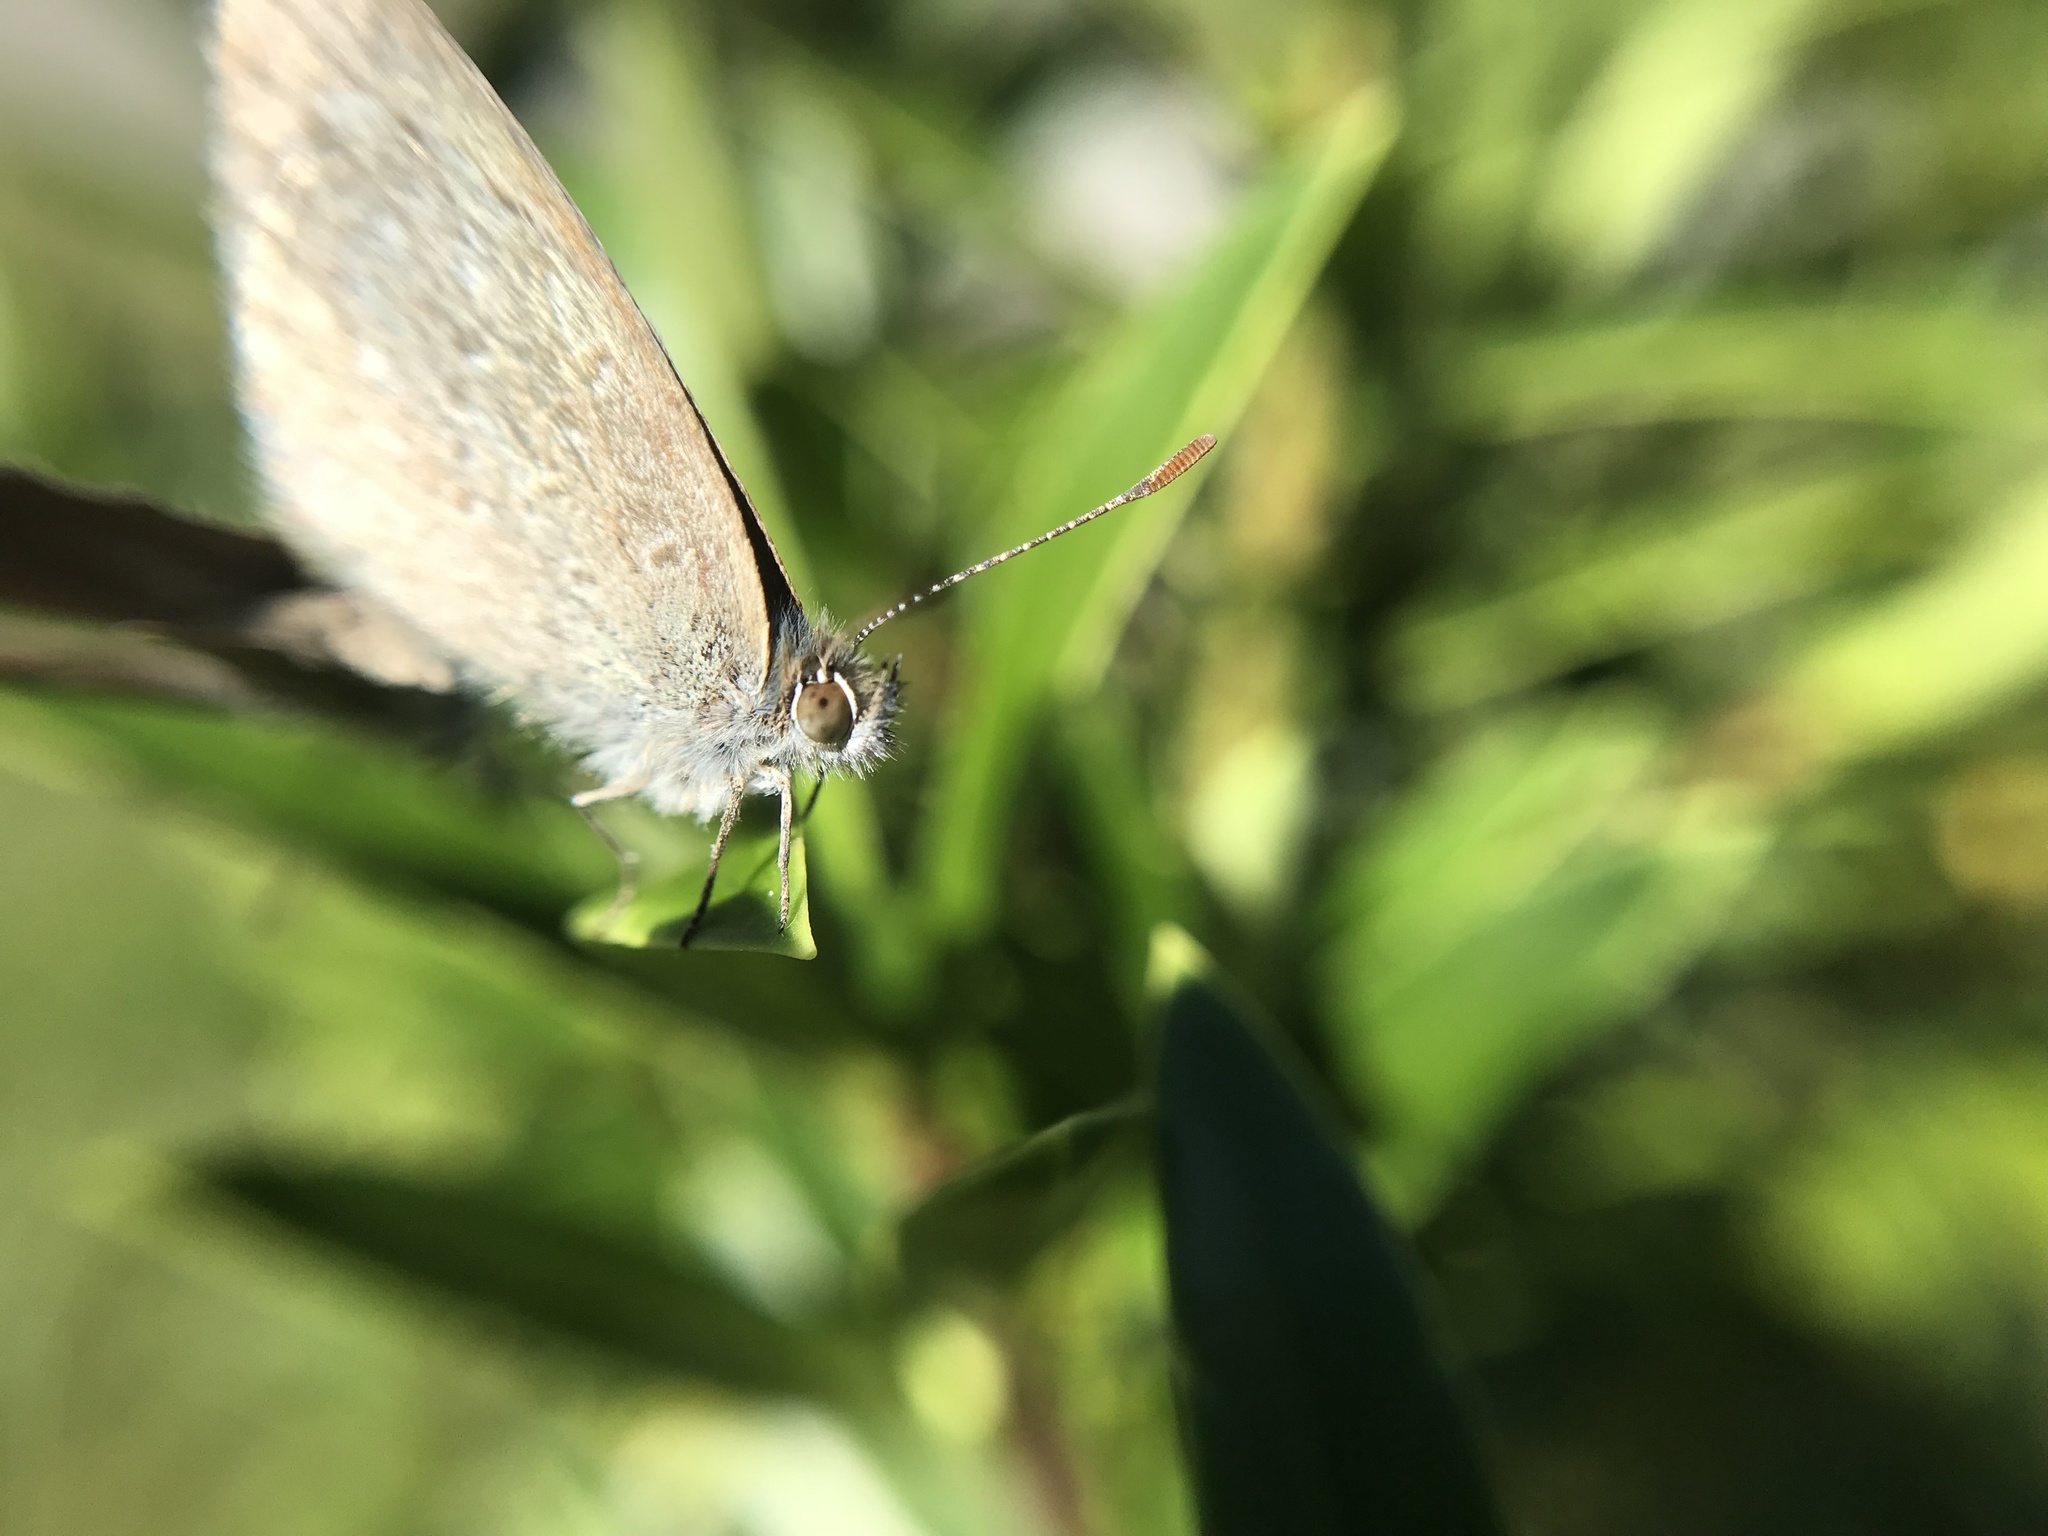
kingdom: Animalia
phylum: Arthropoda
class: Insecta
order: Lepidoptera
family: Lycaenidae
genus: Zizina
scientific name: Zizina labradus
